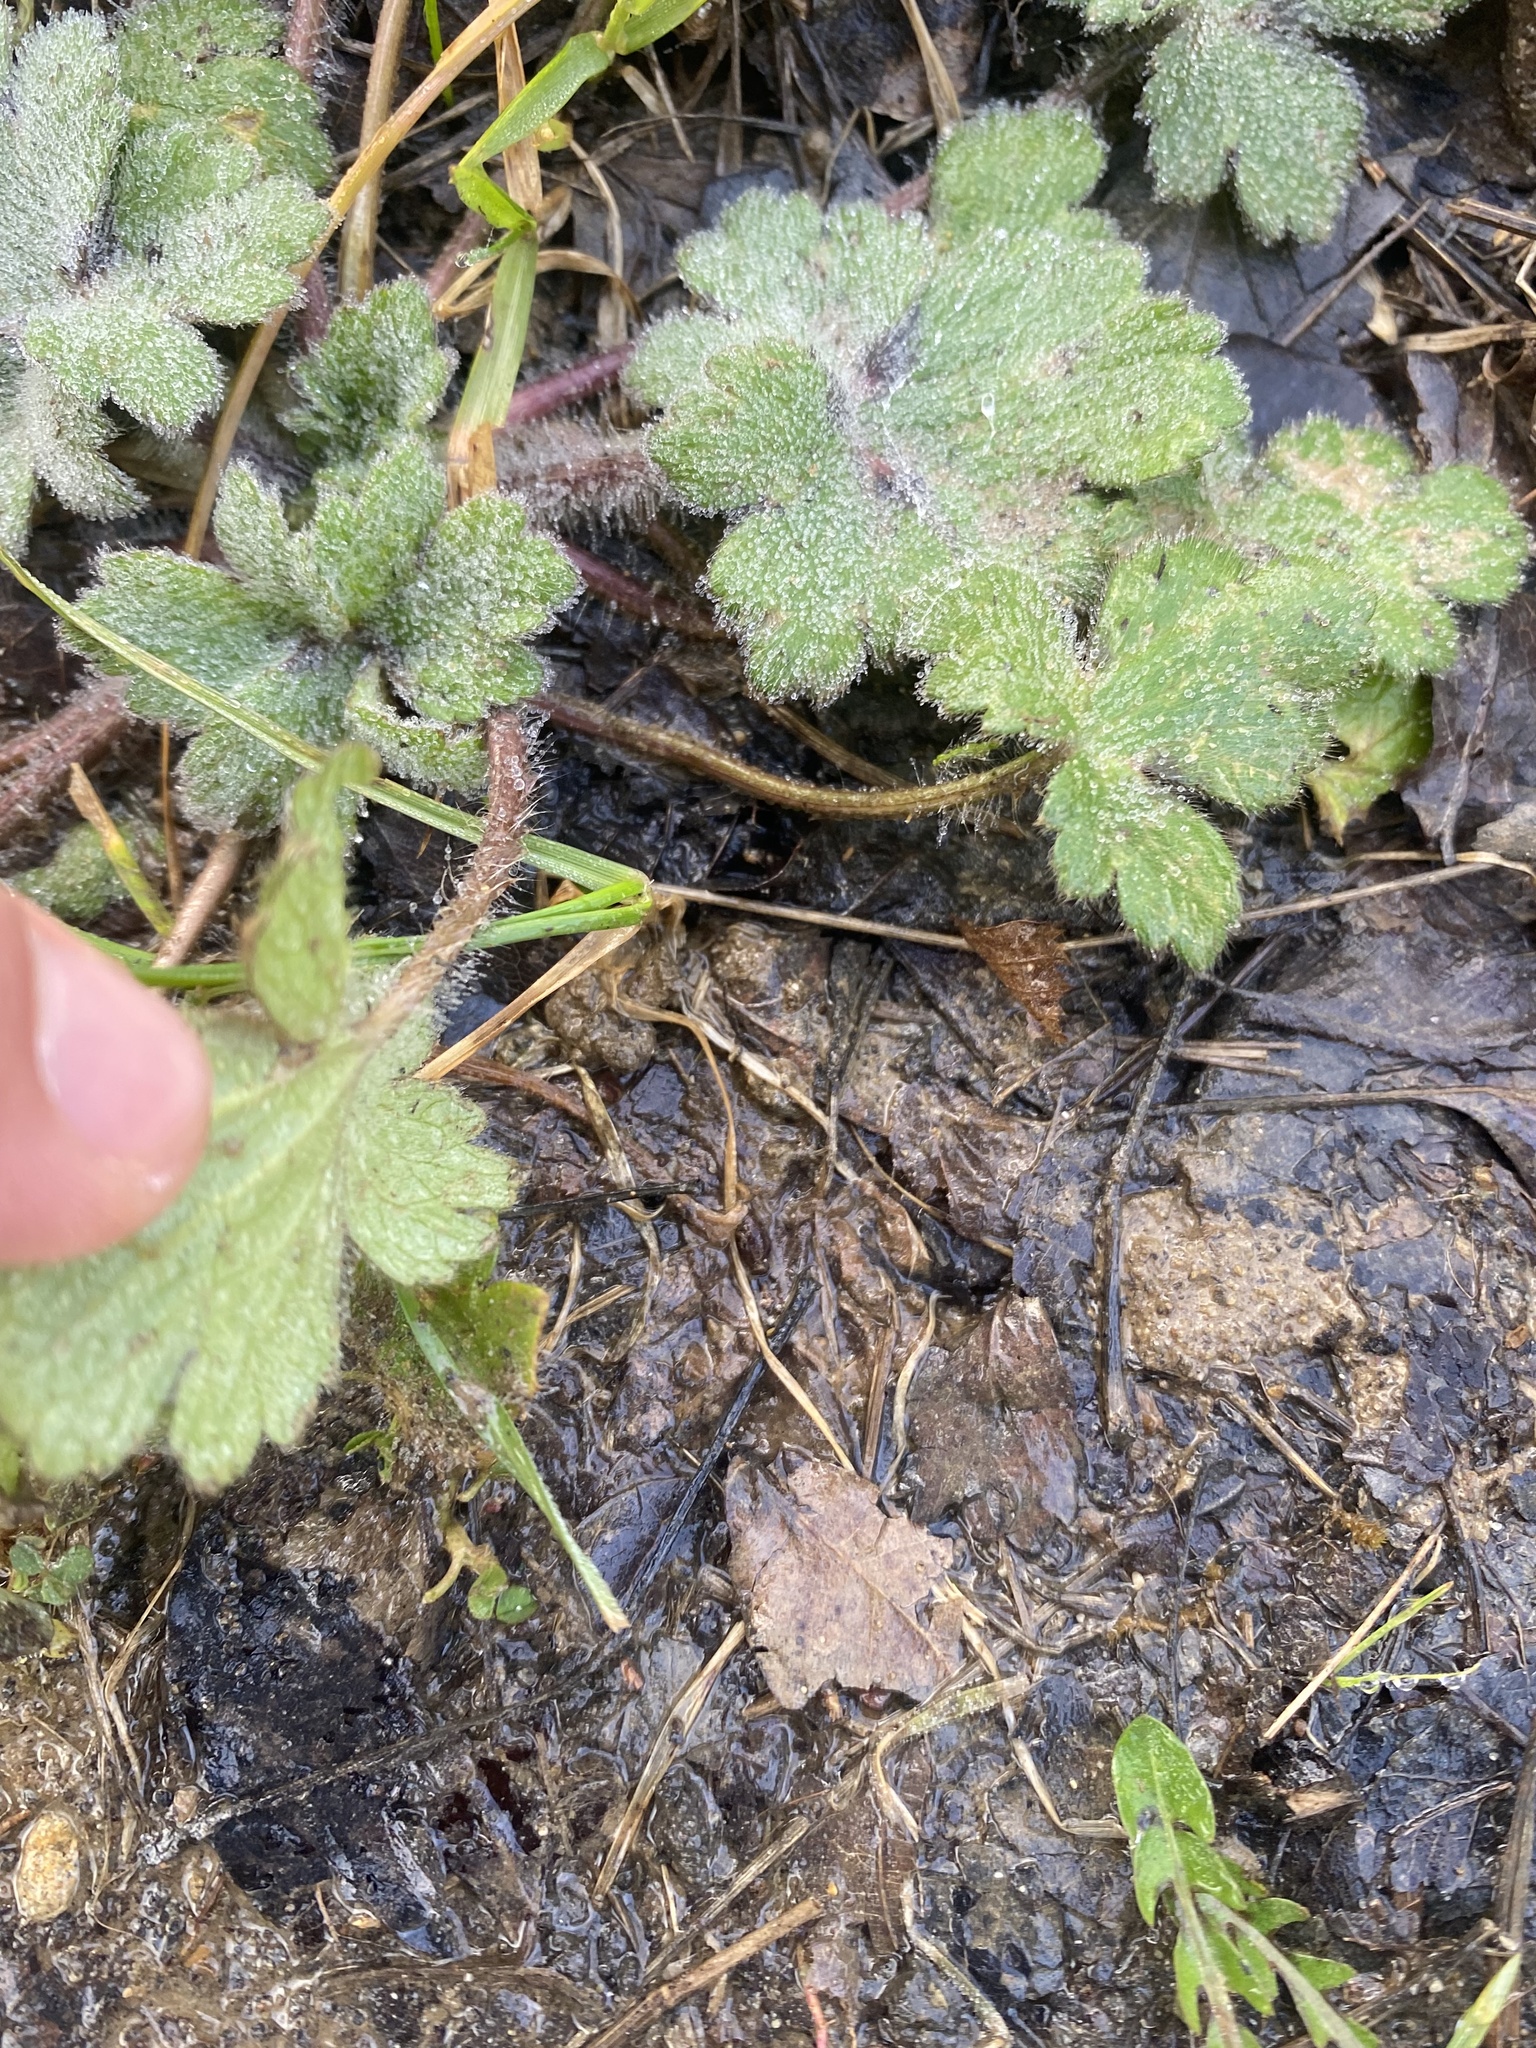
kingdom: Plantae
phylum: Tracheophyta
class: Magnoliopsida
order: Ranunculales
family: Ranunculaceae
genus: Ranunculus
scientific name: Ranunculus constantinopolitanus
